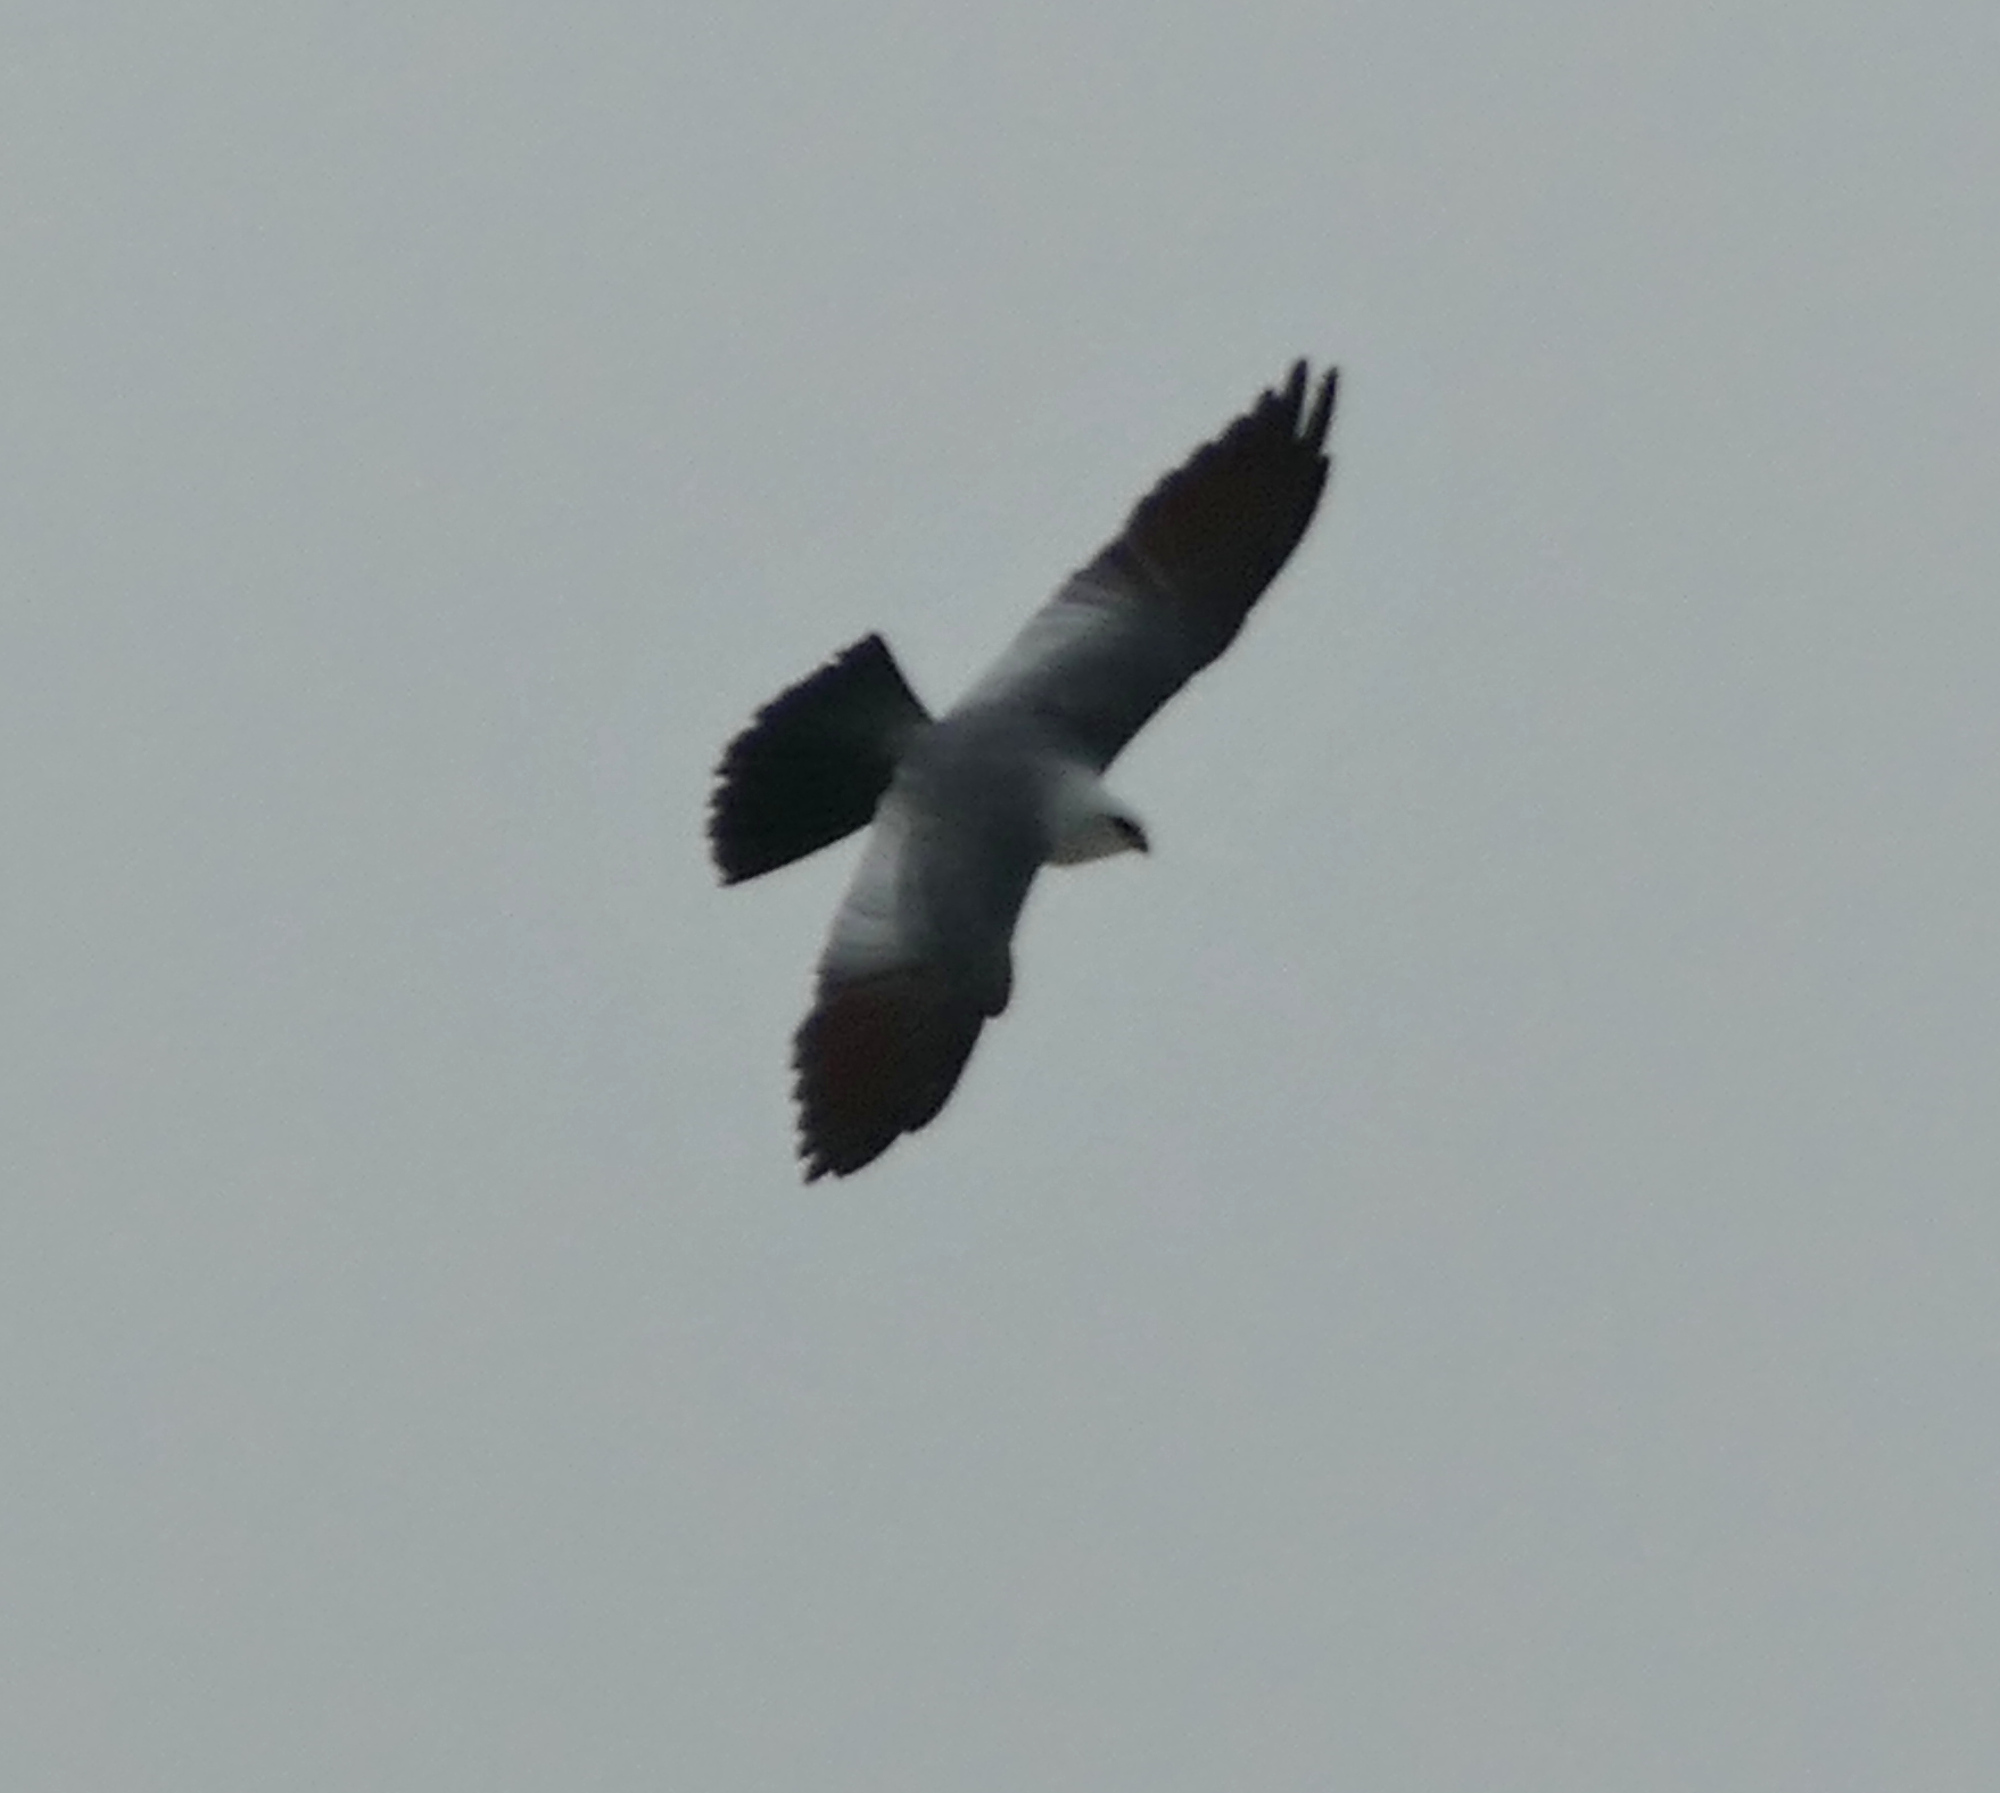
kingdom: Animalia
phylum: Chordata
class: Aves
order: Accipitriformes
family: Accipitridae
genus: Ictinia
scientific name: Ictinia mississippiensis
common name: Mississippi kite
